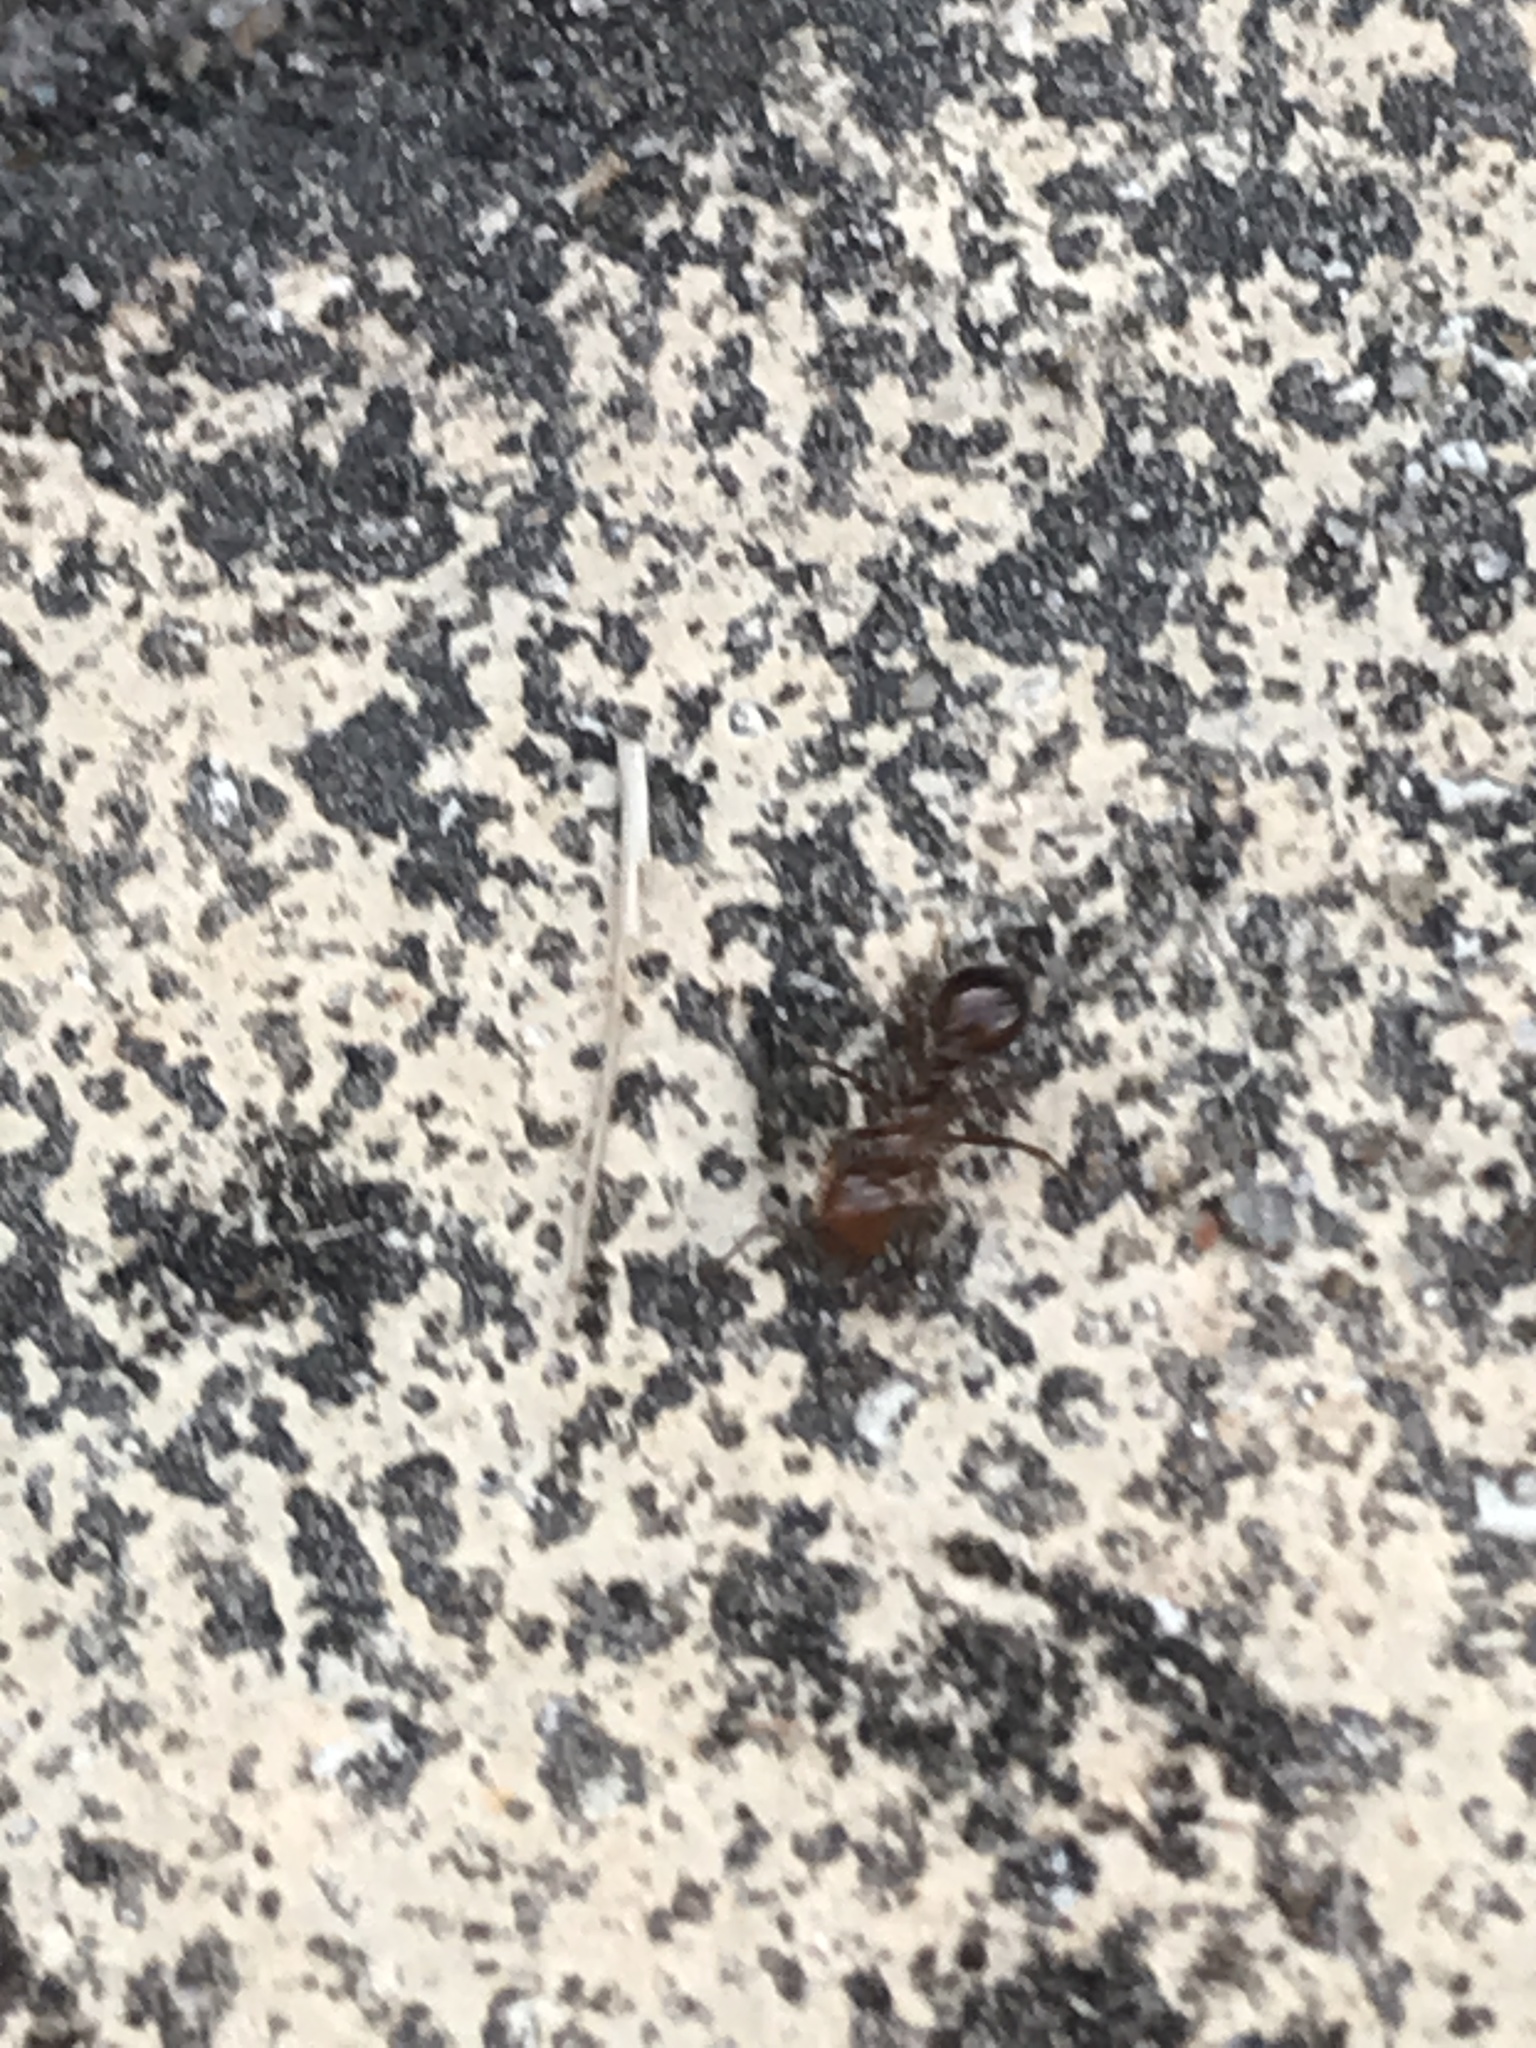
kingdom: Animalia
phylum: Arthropoda
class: Insecta
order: Hymenoptera
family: Formicidae
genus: Solenopsis
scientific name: Solenopsis invicta
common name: Red imported fire ant
